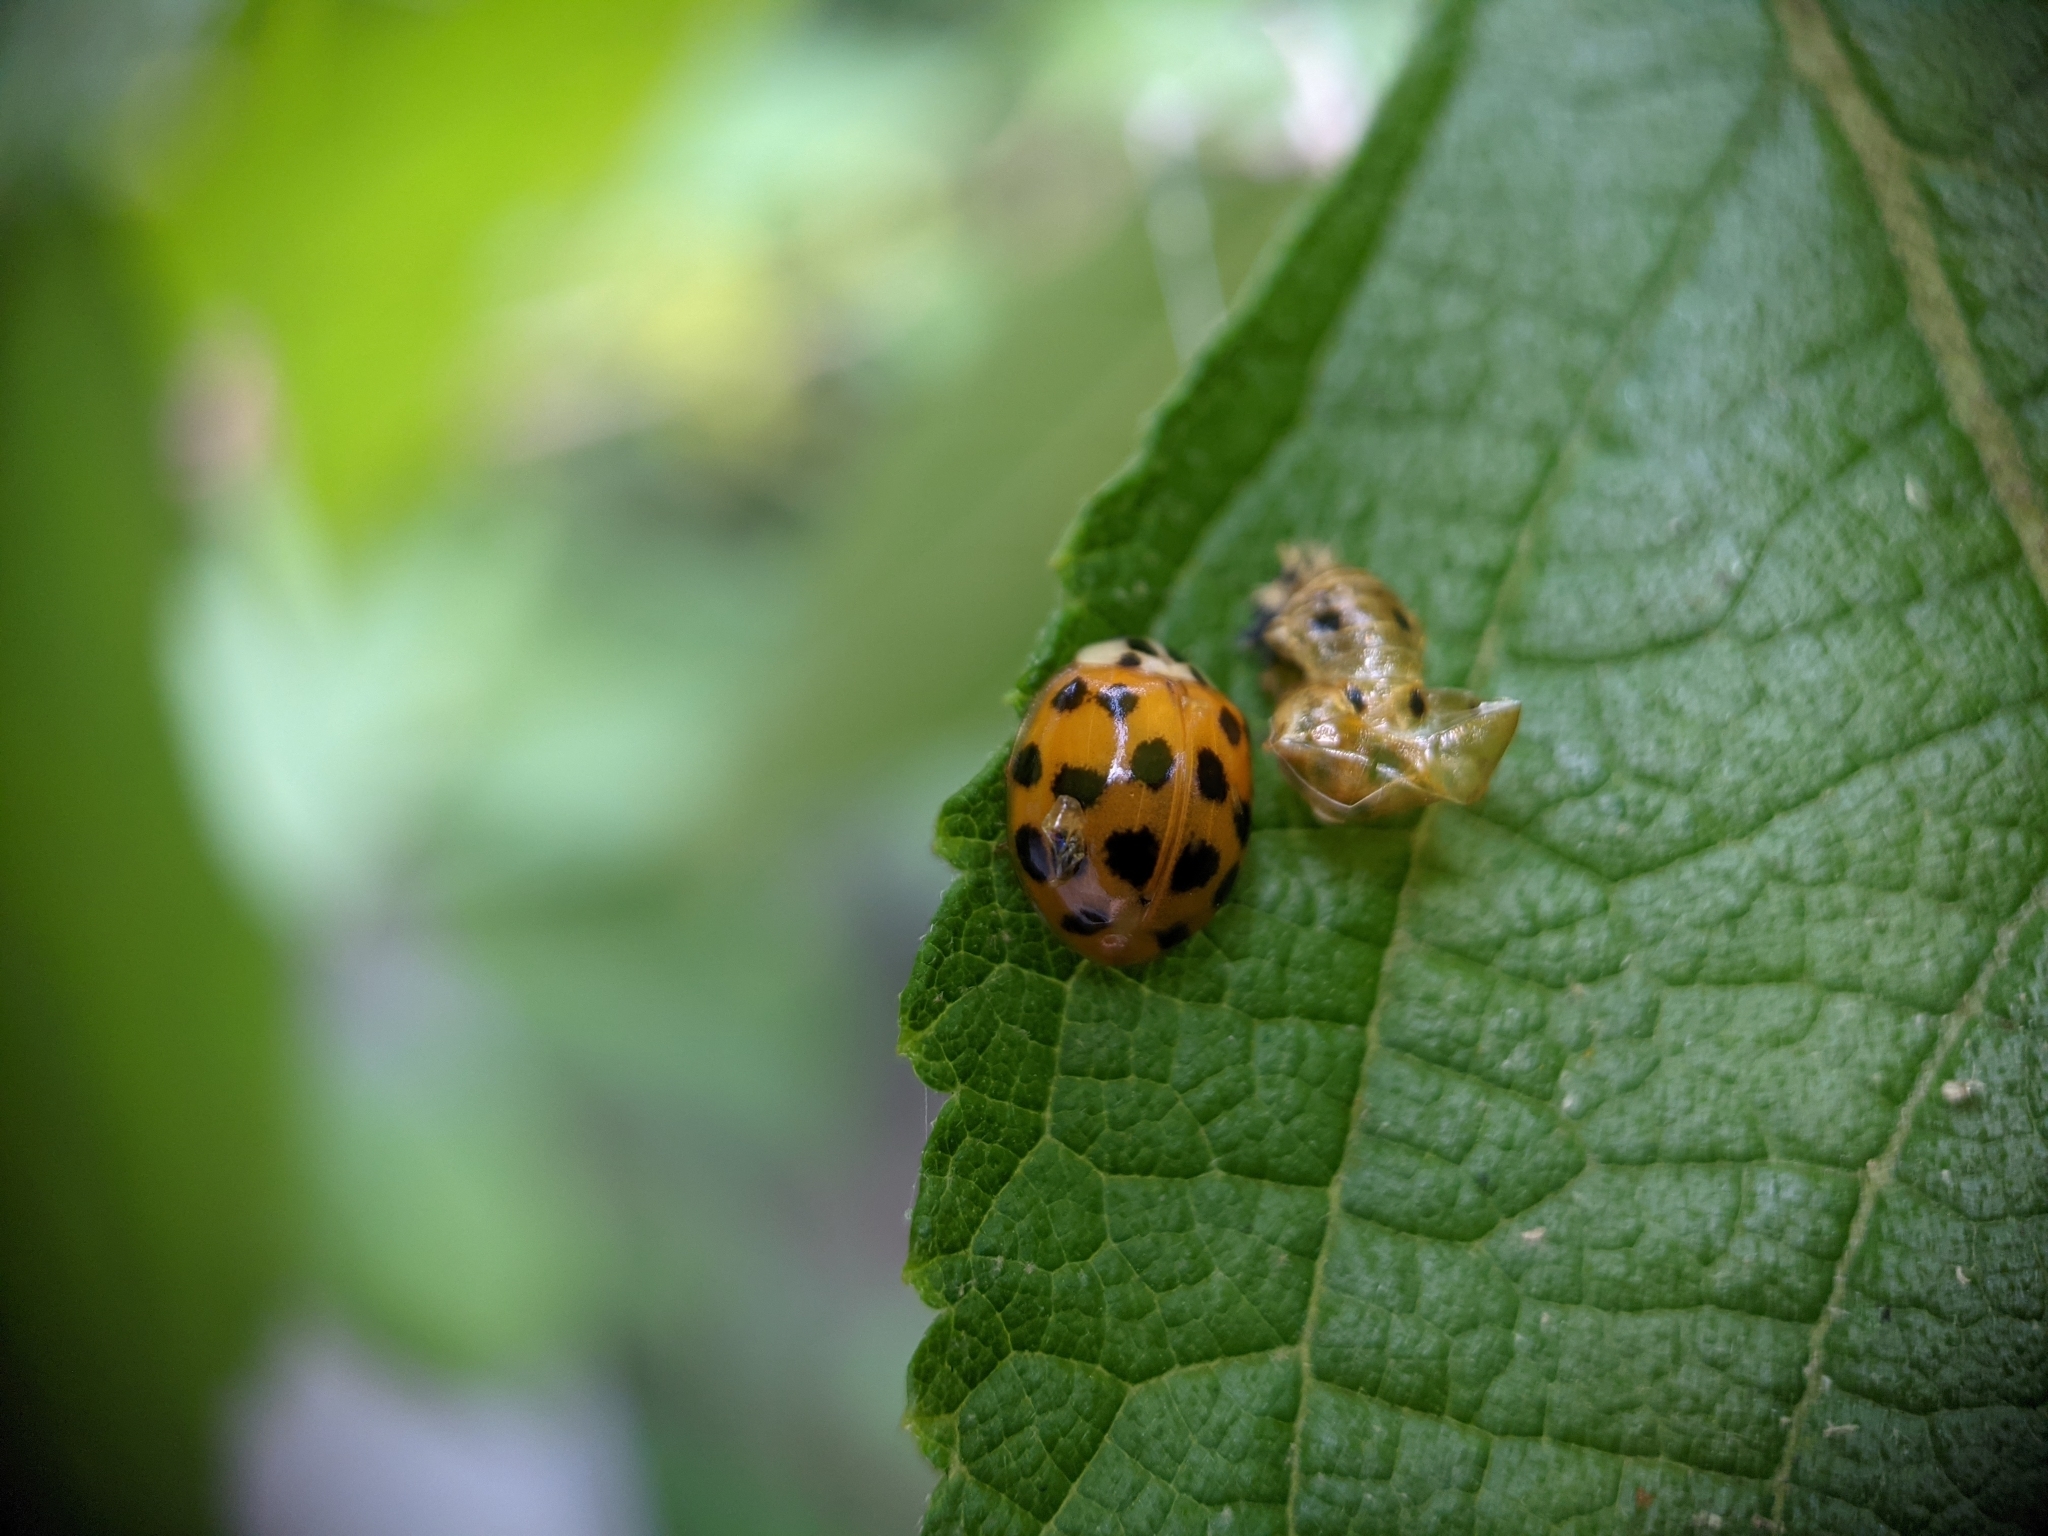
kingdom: Animalia
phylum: Arthropoda
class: Insecta
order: Coleoptera
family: Coccinellidae
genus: Harmonia
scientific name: Harmonia axyridis
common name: Harlequin ladybird
